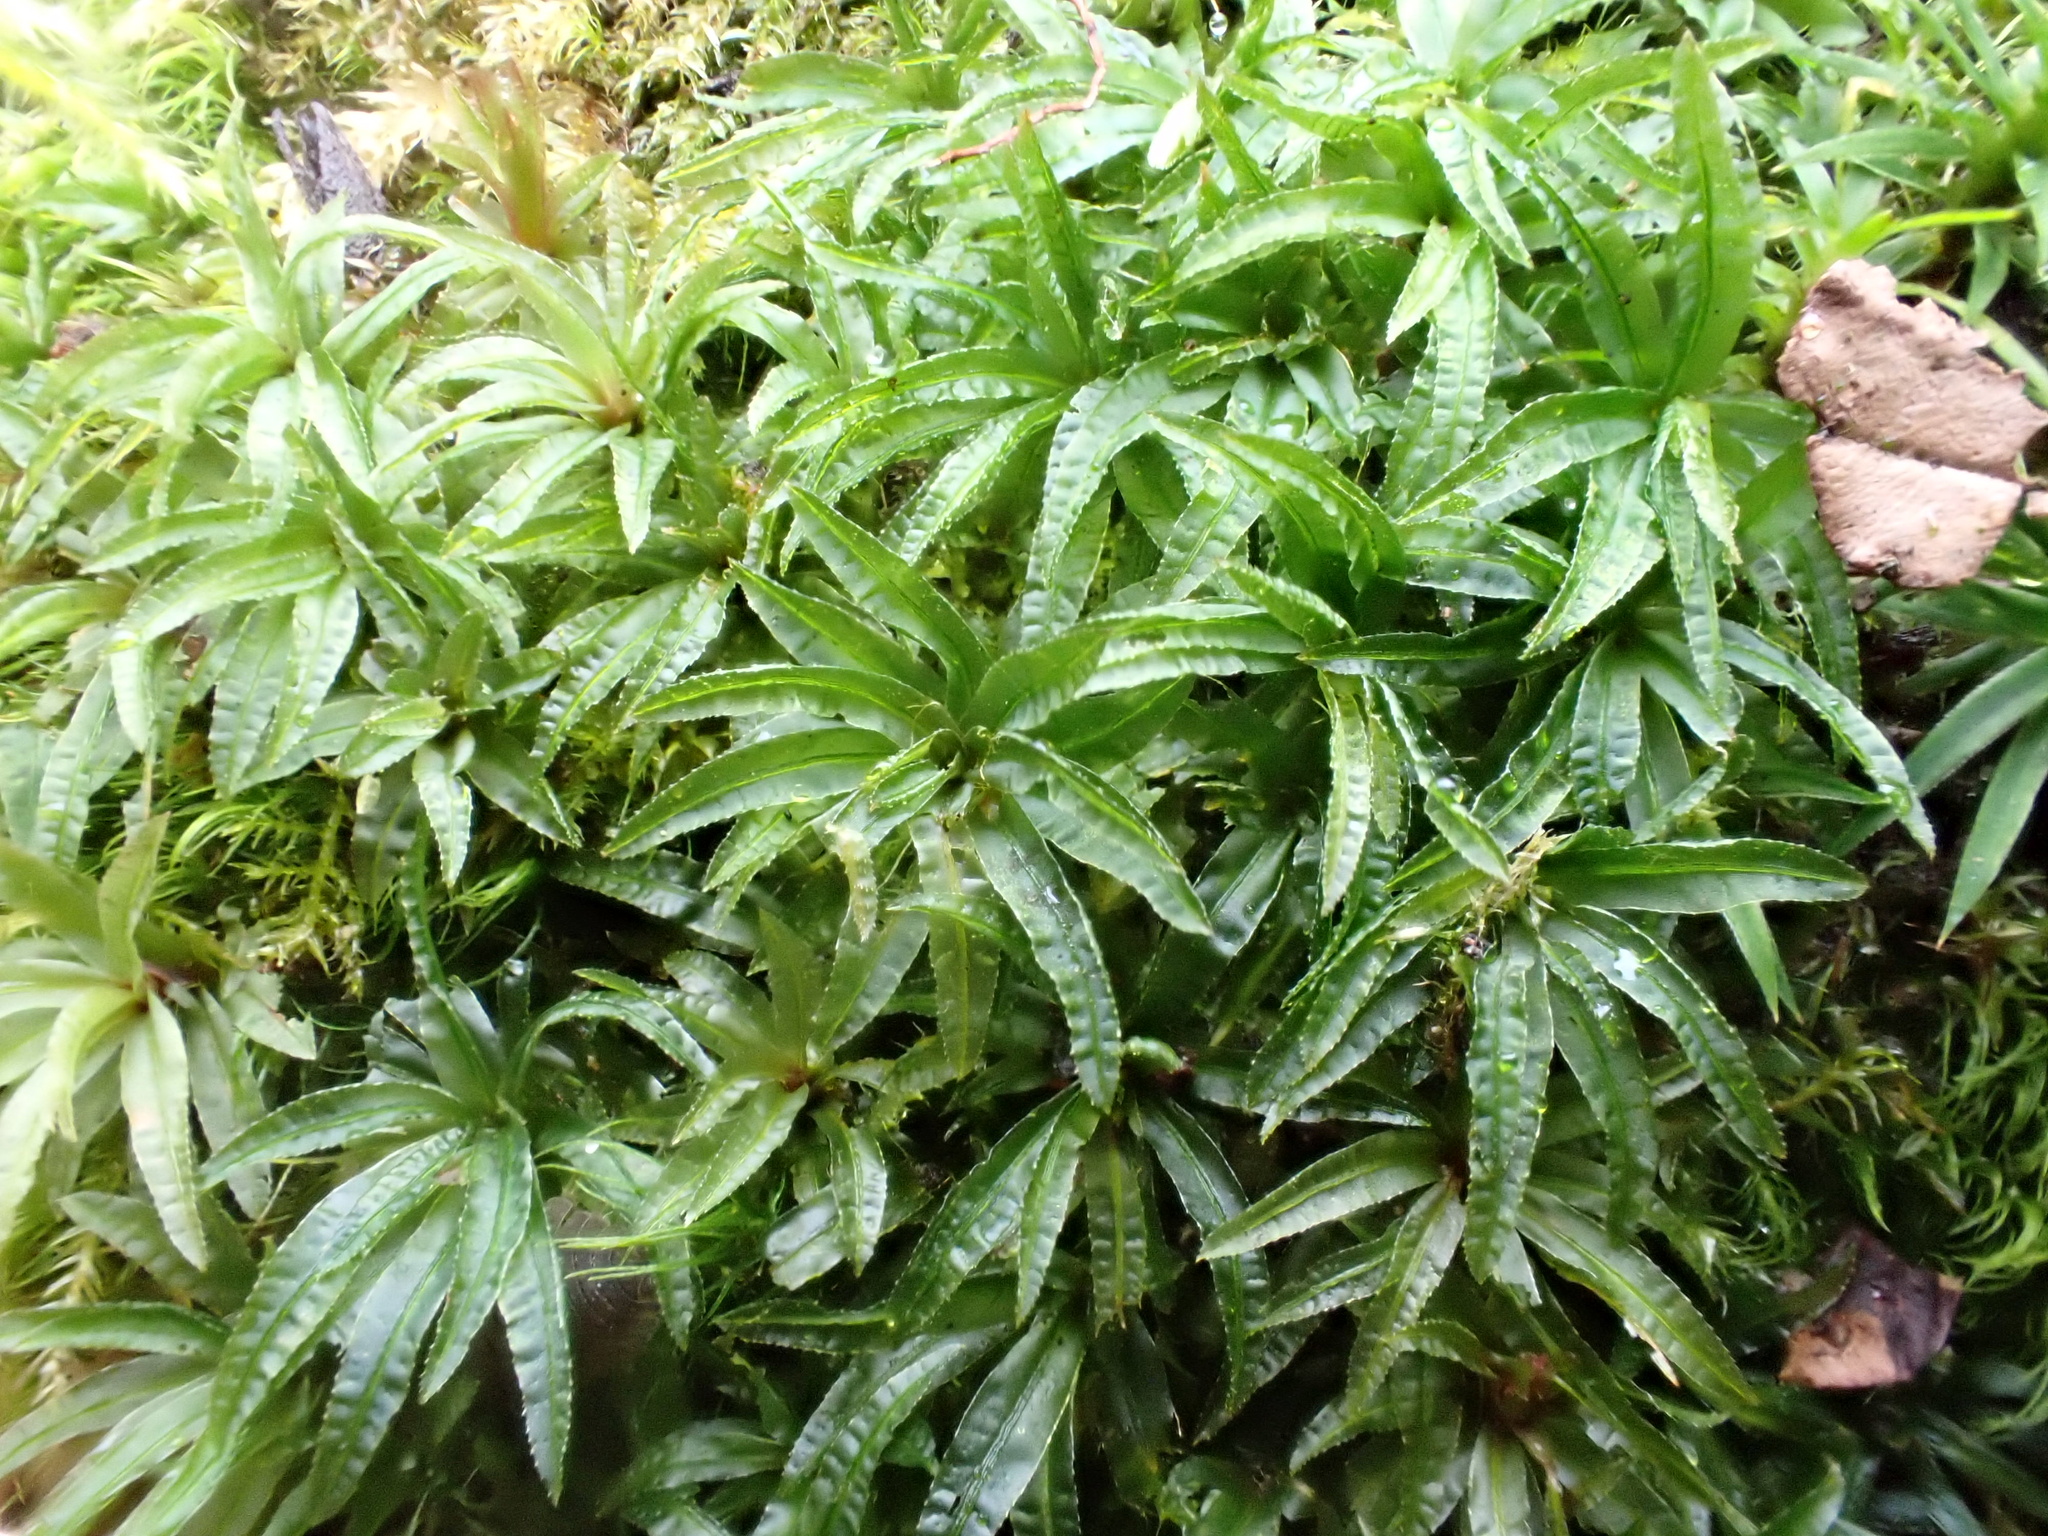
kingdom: Plantae
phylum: Bryophyta
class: Polytrichopsida
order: Polytrichales
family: Polytrichaceae
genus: Atrichum
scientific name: Atrichum undulatum
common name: Common smoothcap
